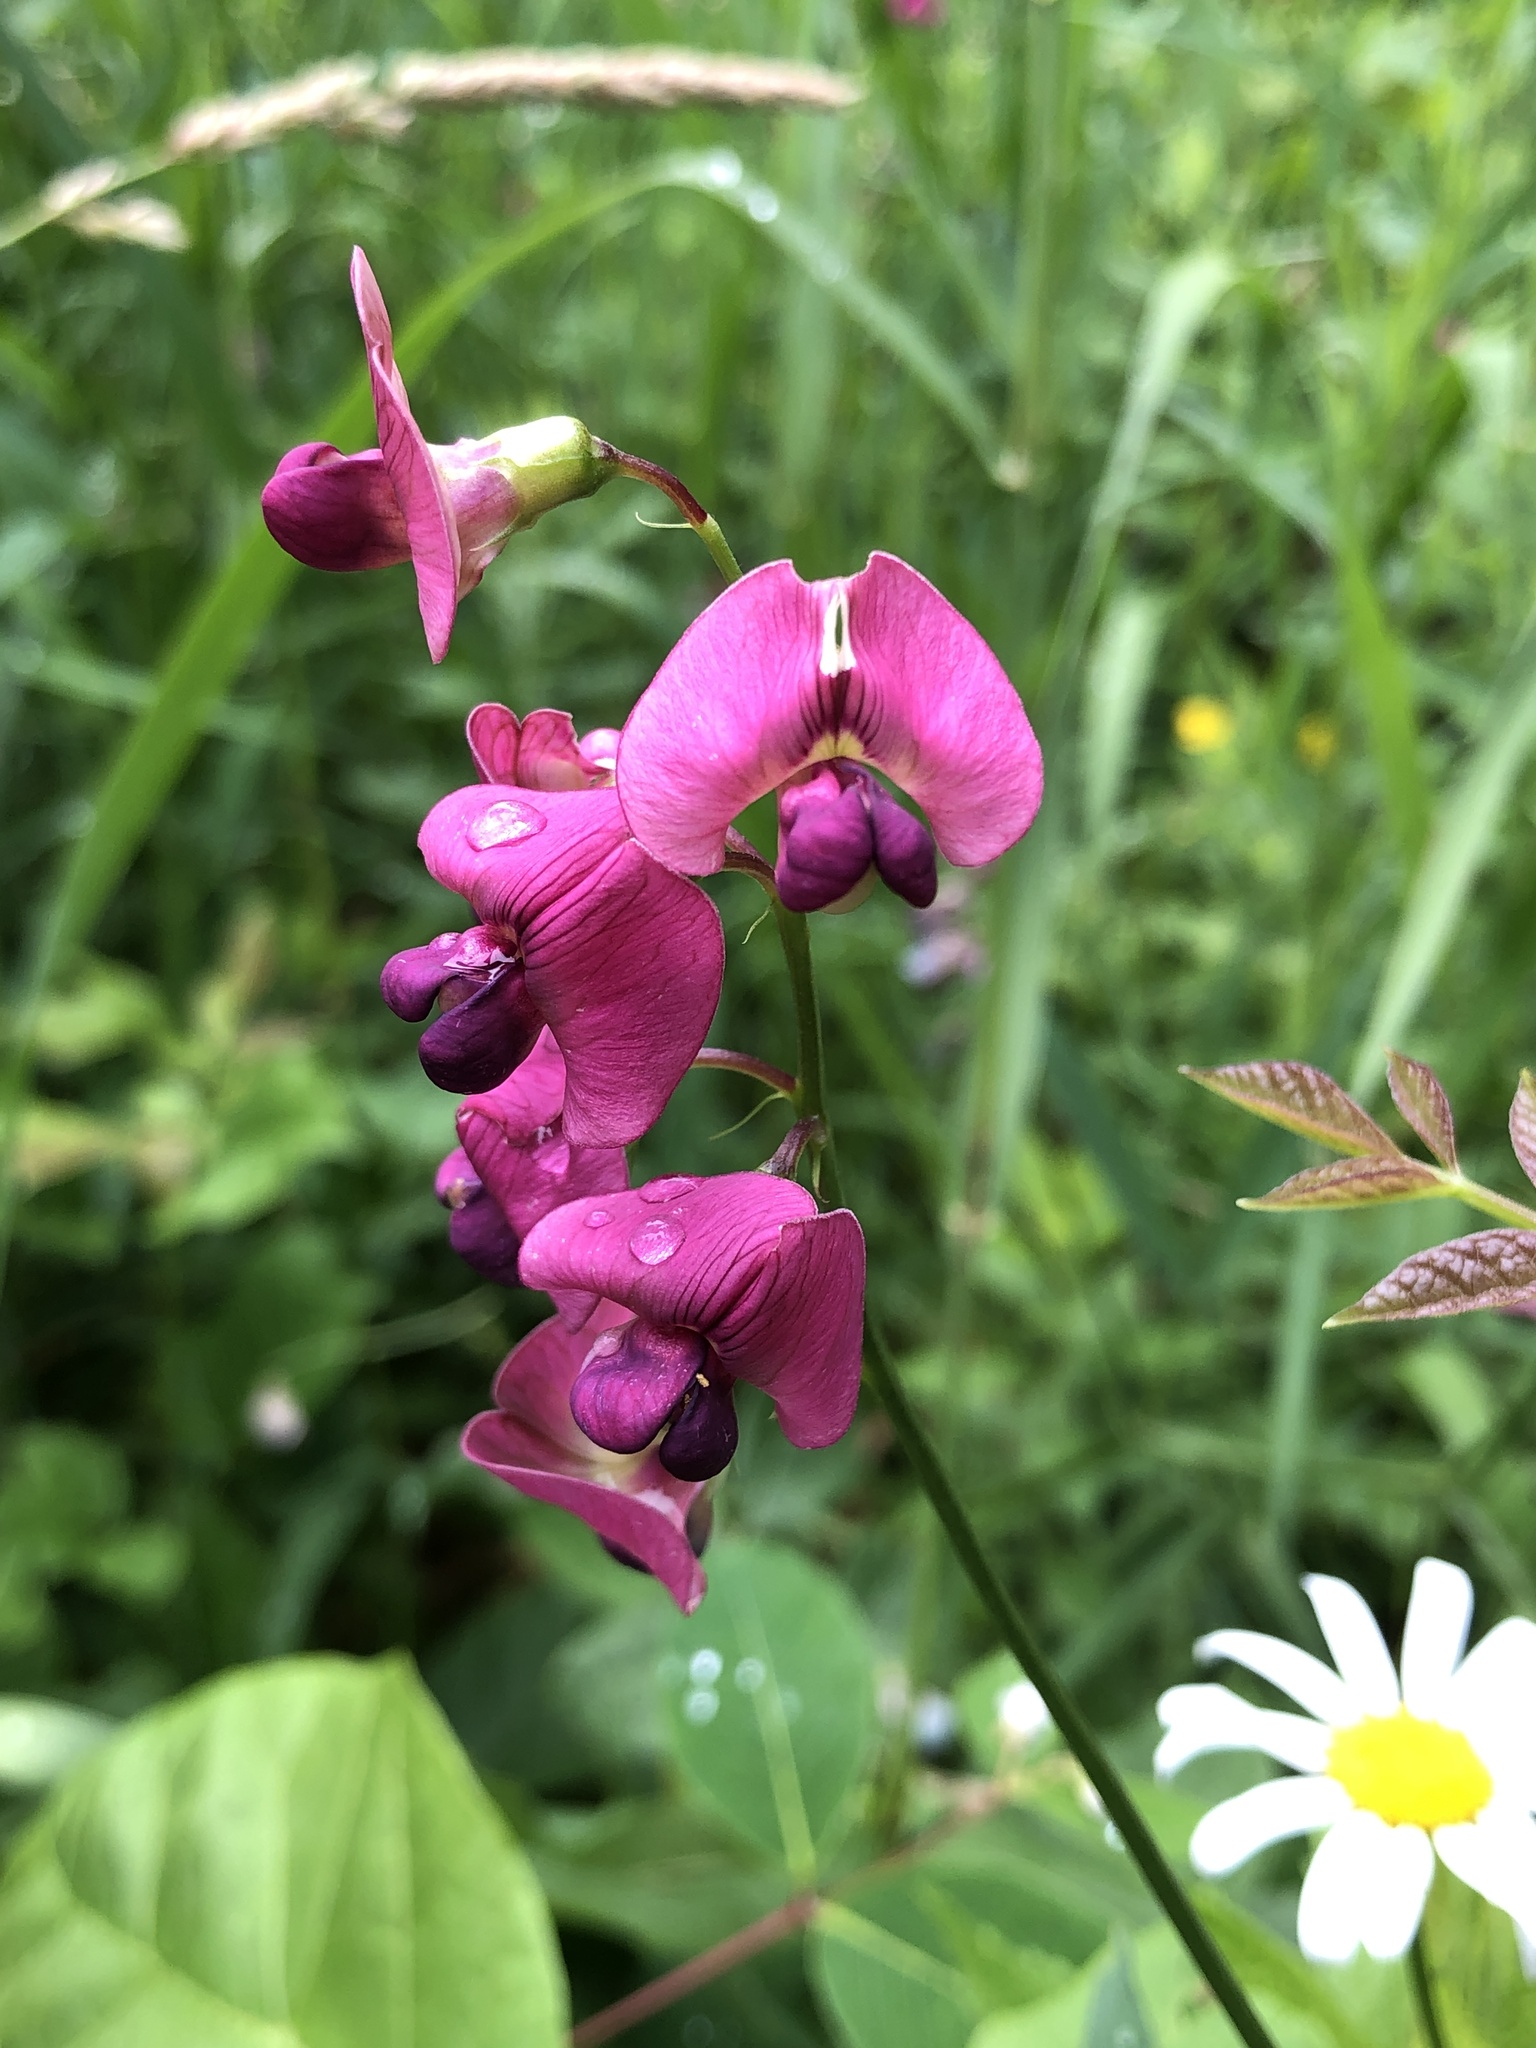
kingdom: Plantae
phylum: Tracheophyta
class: Magnoliopsida
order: Fabales
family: Fabaceae
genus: Lathyrus
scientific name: Lathyrus sylvestris
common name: Flat pea
